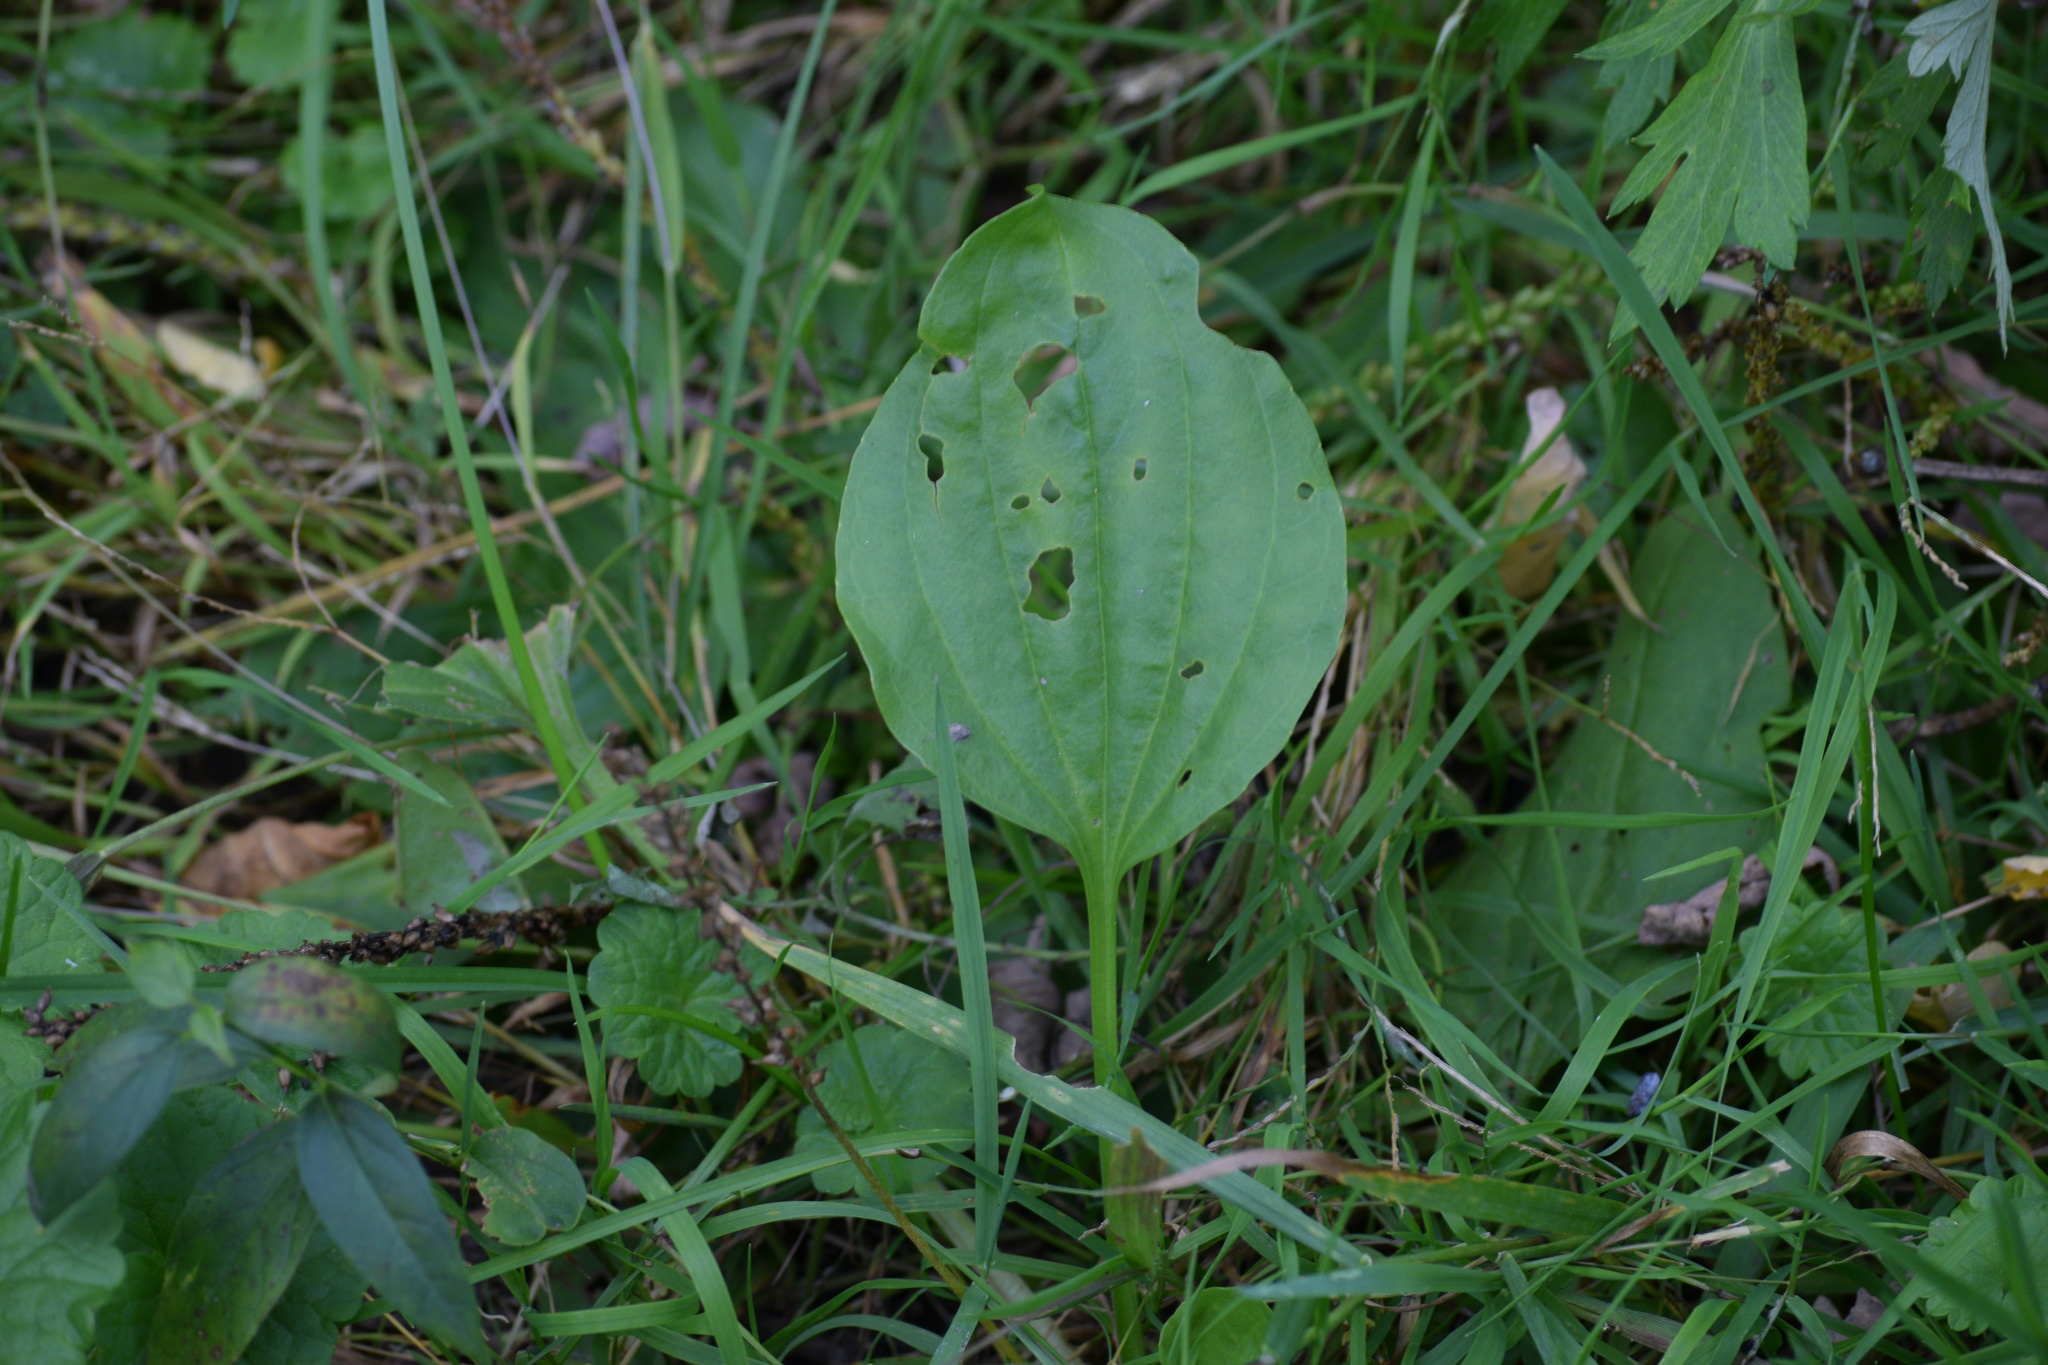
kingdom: Plantae
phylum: Tracheophyta
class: Magnoliopsida
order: Lamiales
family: Plantaginaceae
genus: Plantago
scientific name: Plantago rugelii
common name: American plantain
